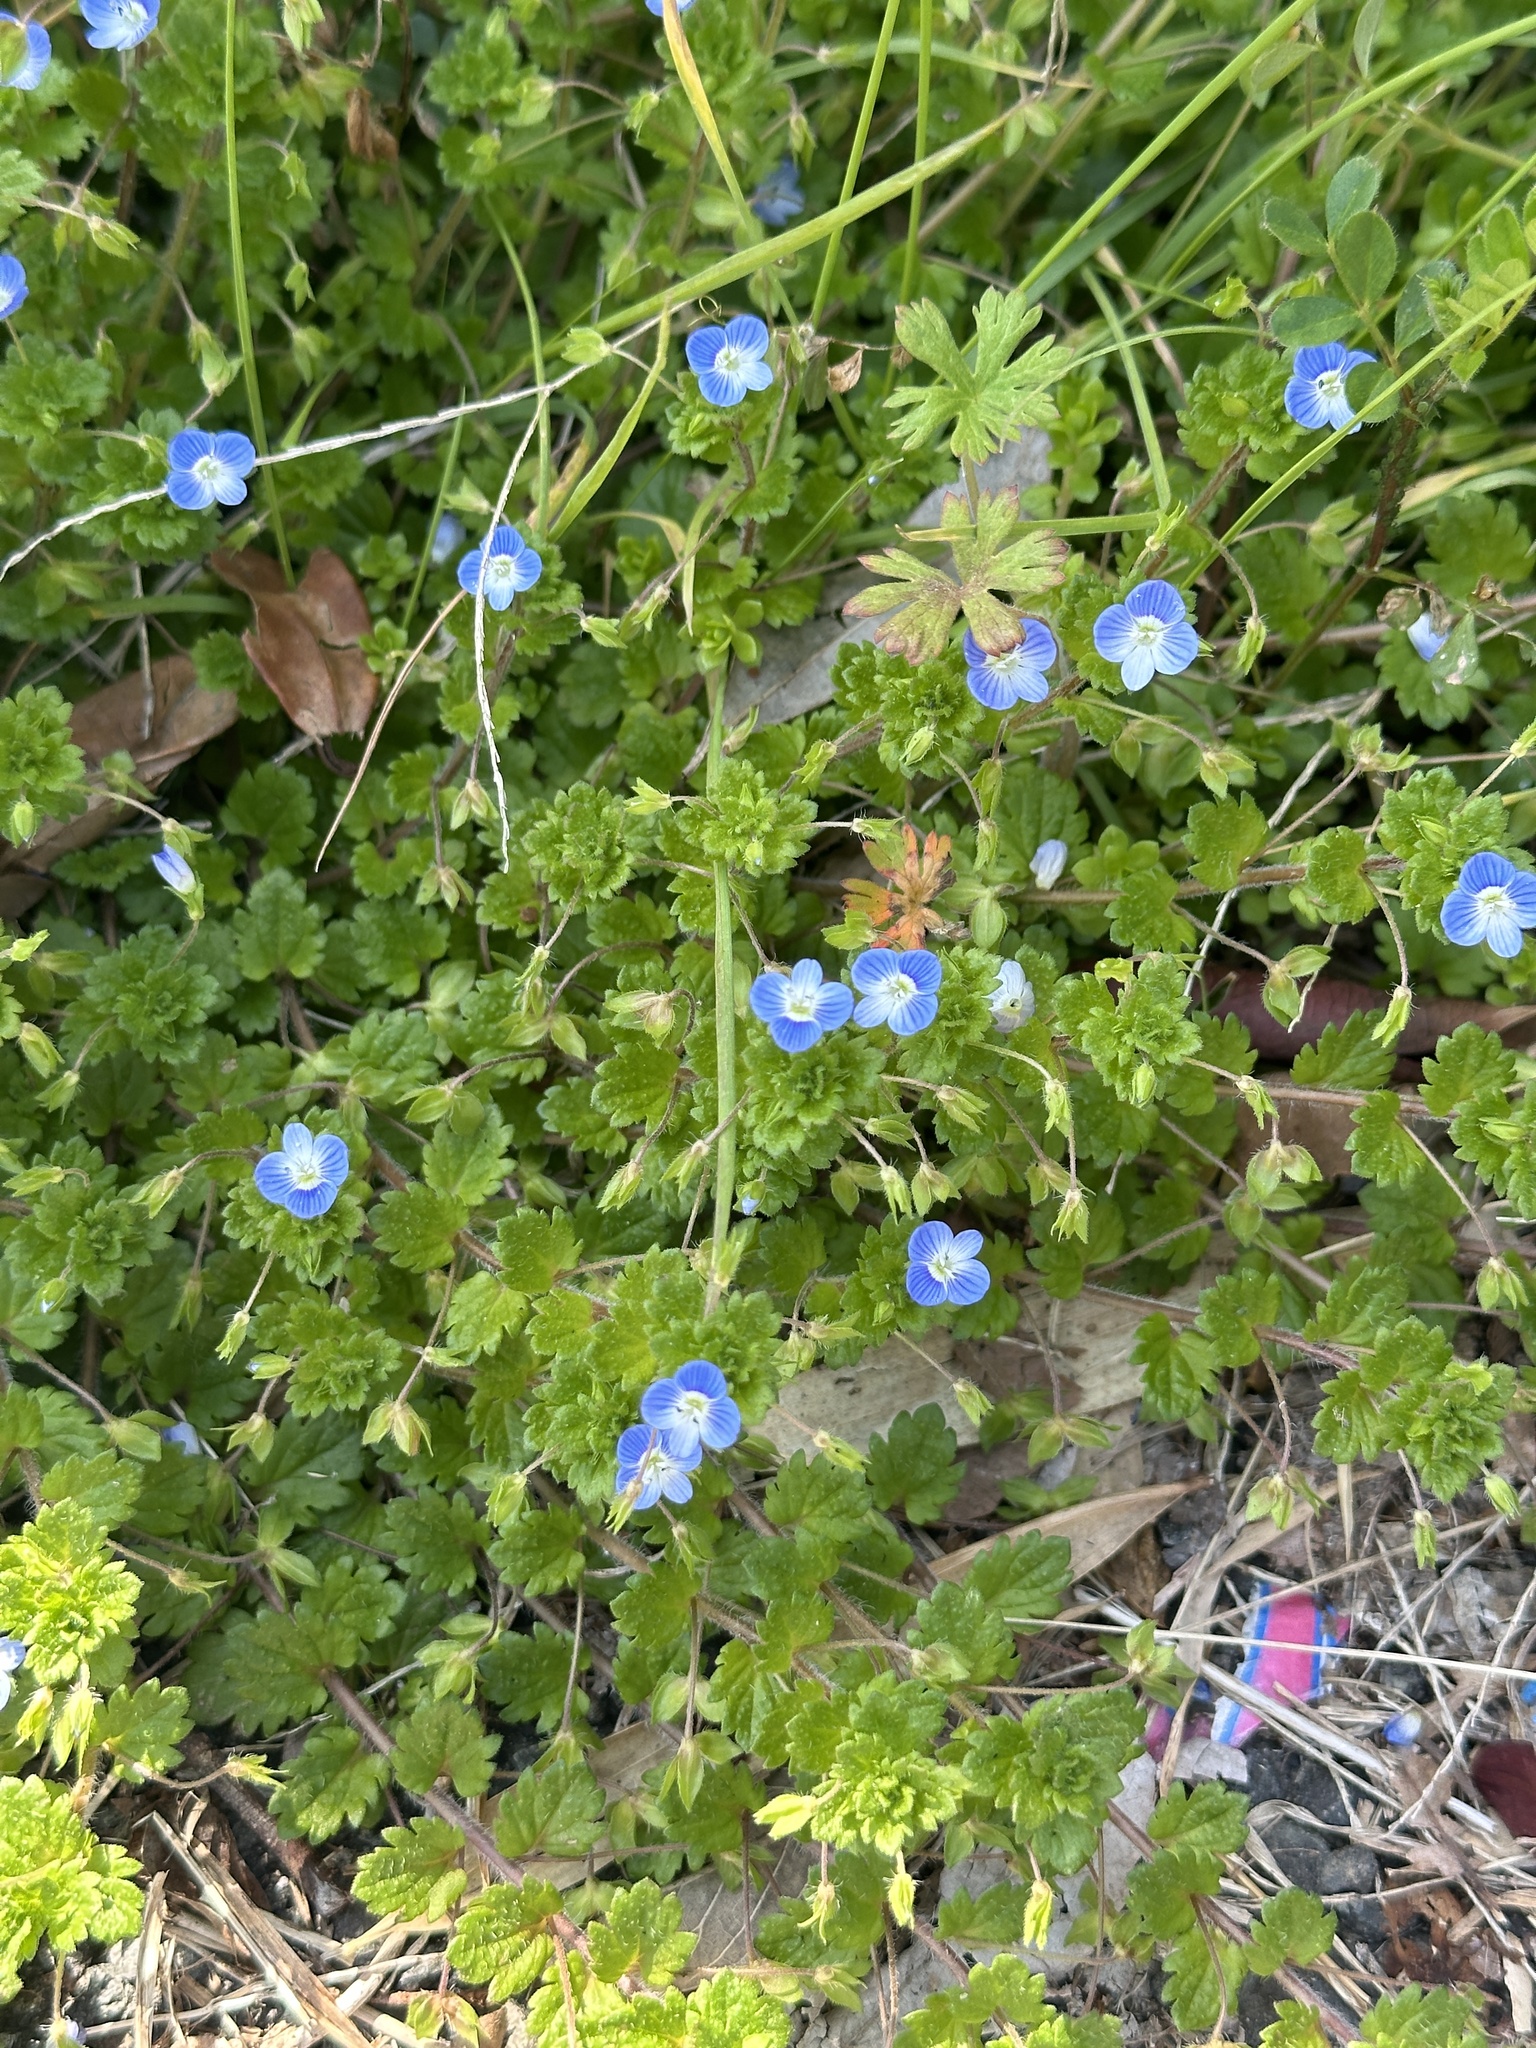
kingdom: Plantae
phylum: Tracheophyta
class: Magnoliopsida
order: Lamiales
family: Plantaginaceae
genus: Veronica
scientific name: Veronica persica
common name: Common field-speedwell
